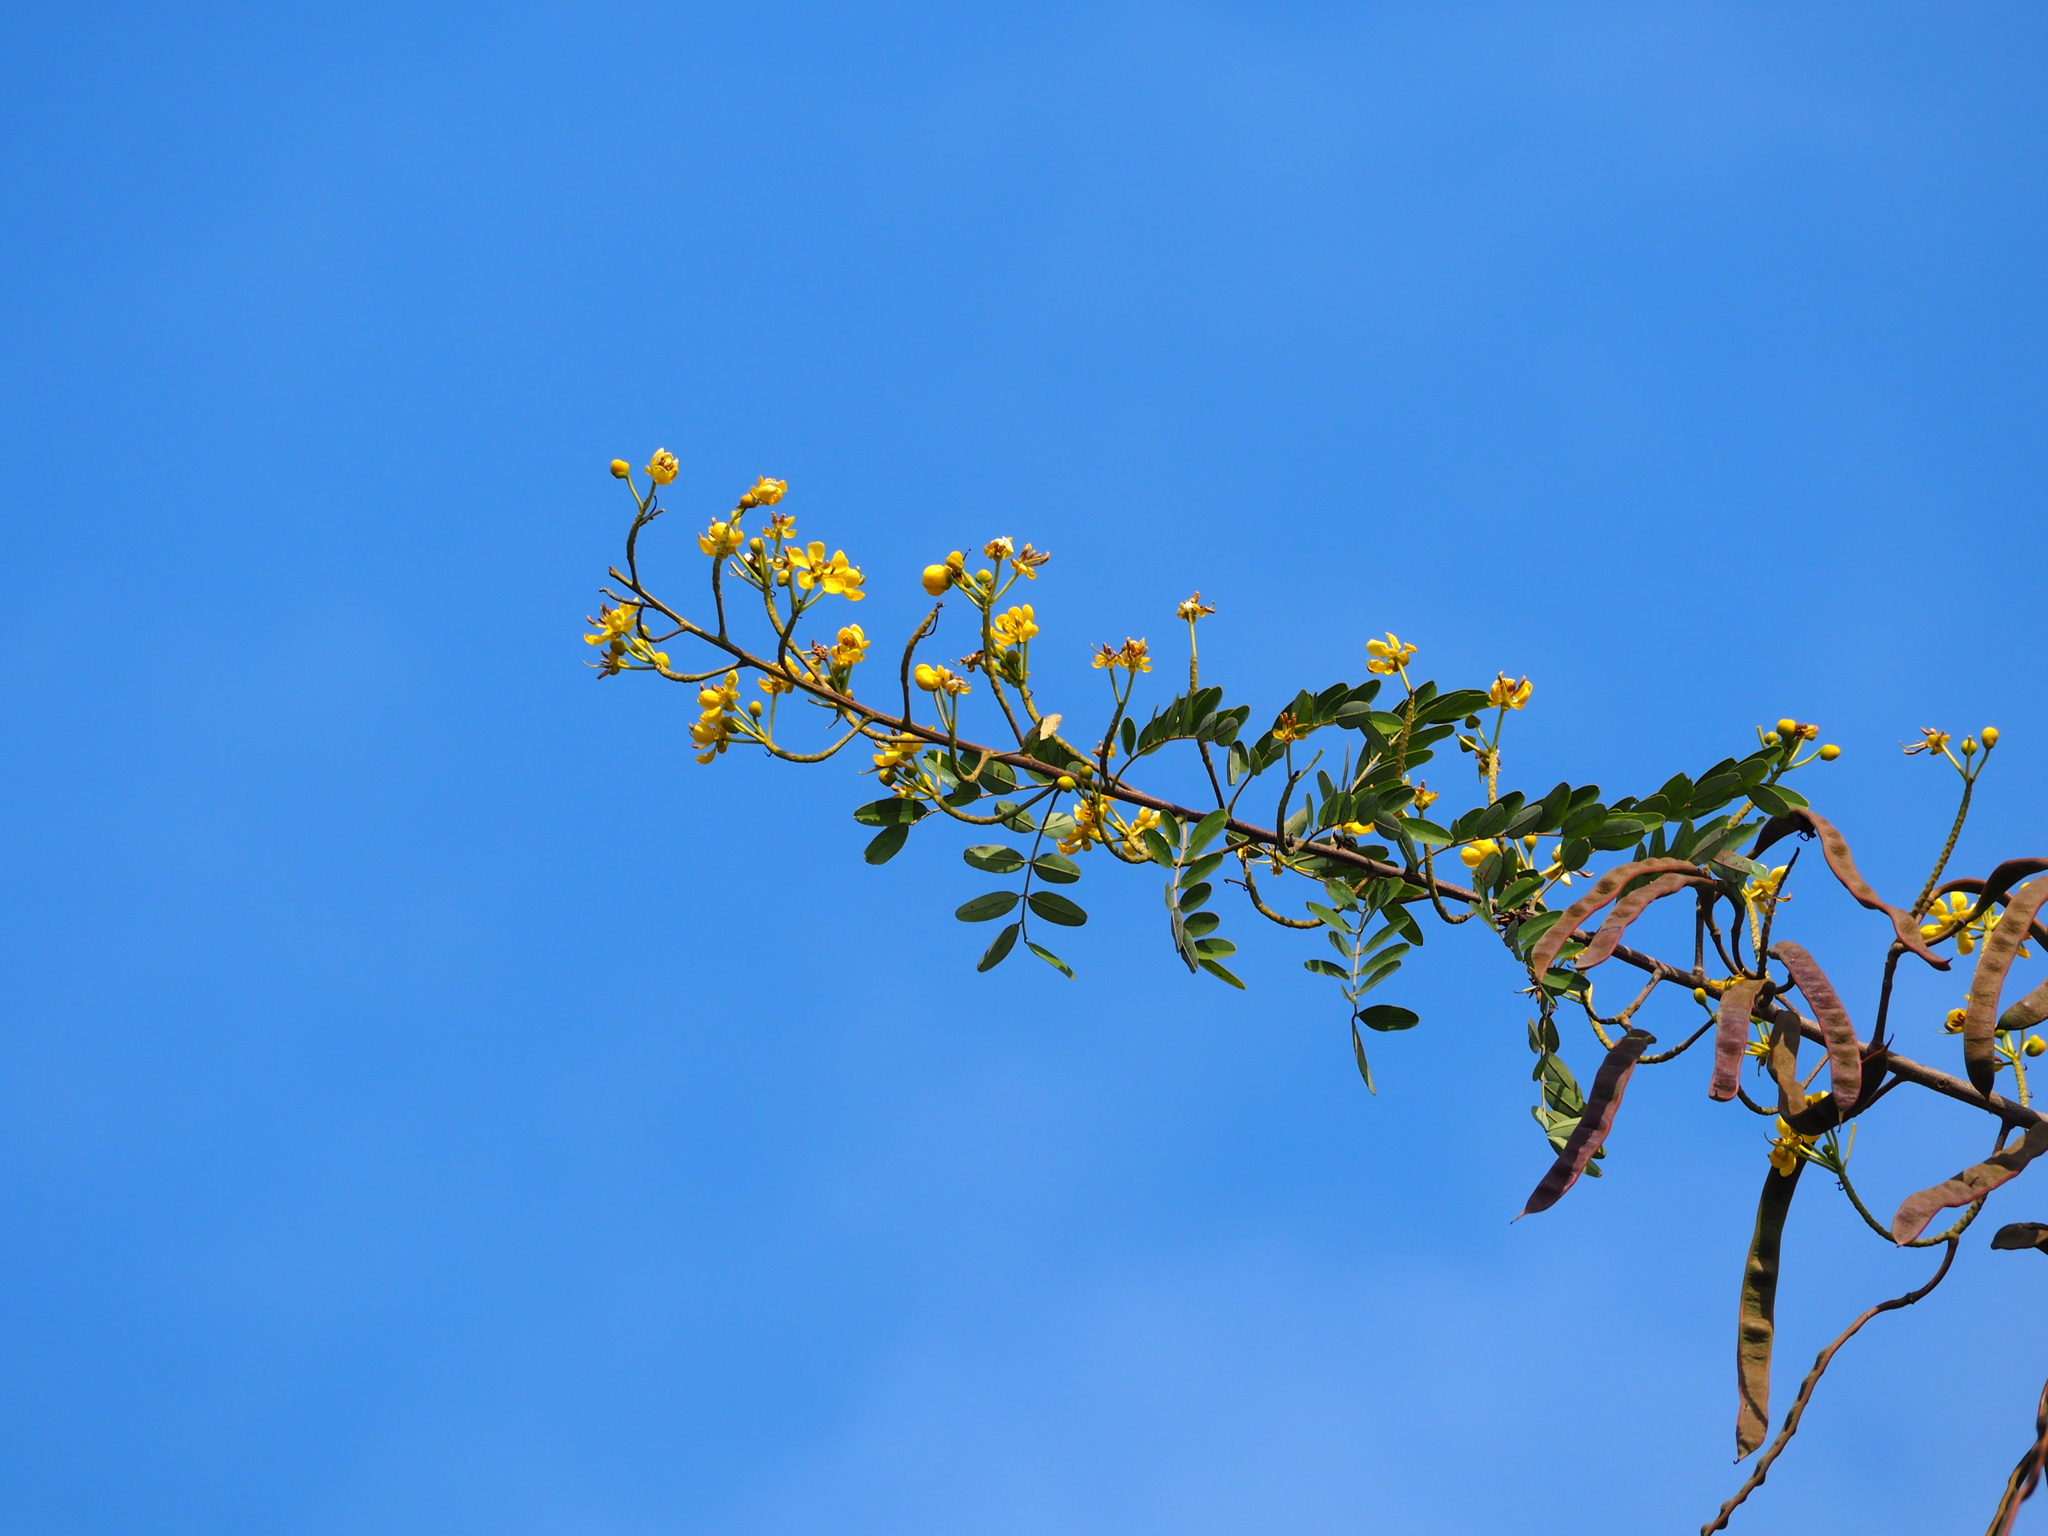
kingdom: Plantae
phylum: Tracheophyta
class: Magnoliopsida
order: Fabales
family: Fabaceae
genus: Senna
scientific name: Senna siamea
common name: Siamese cassia
